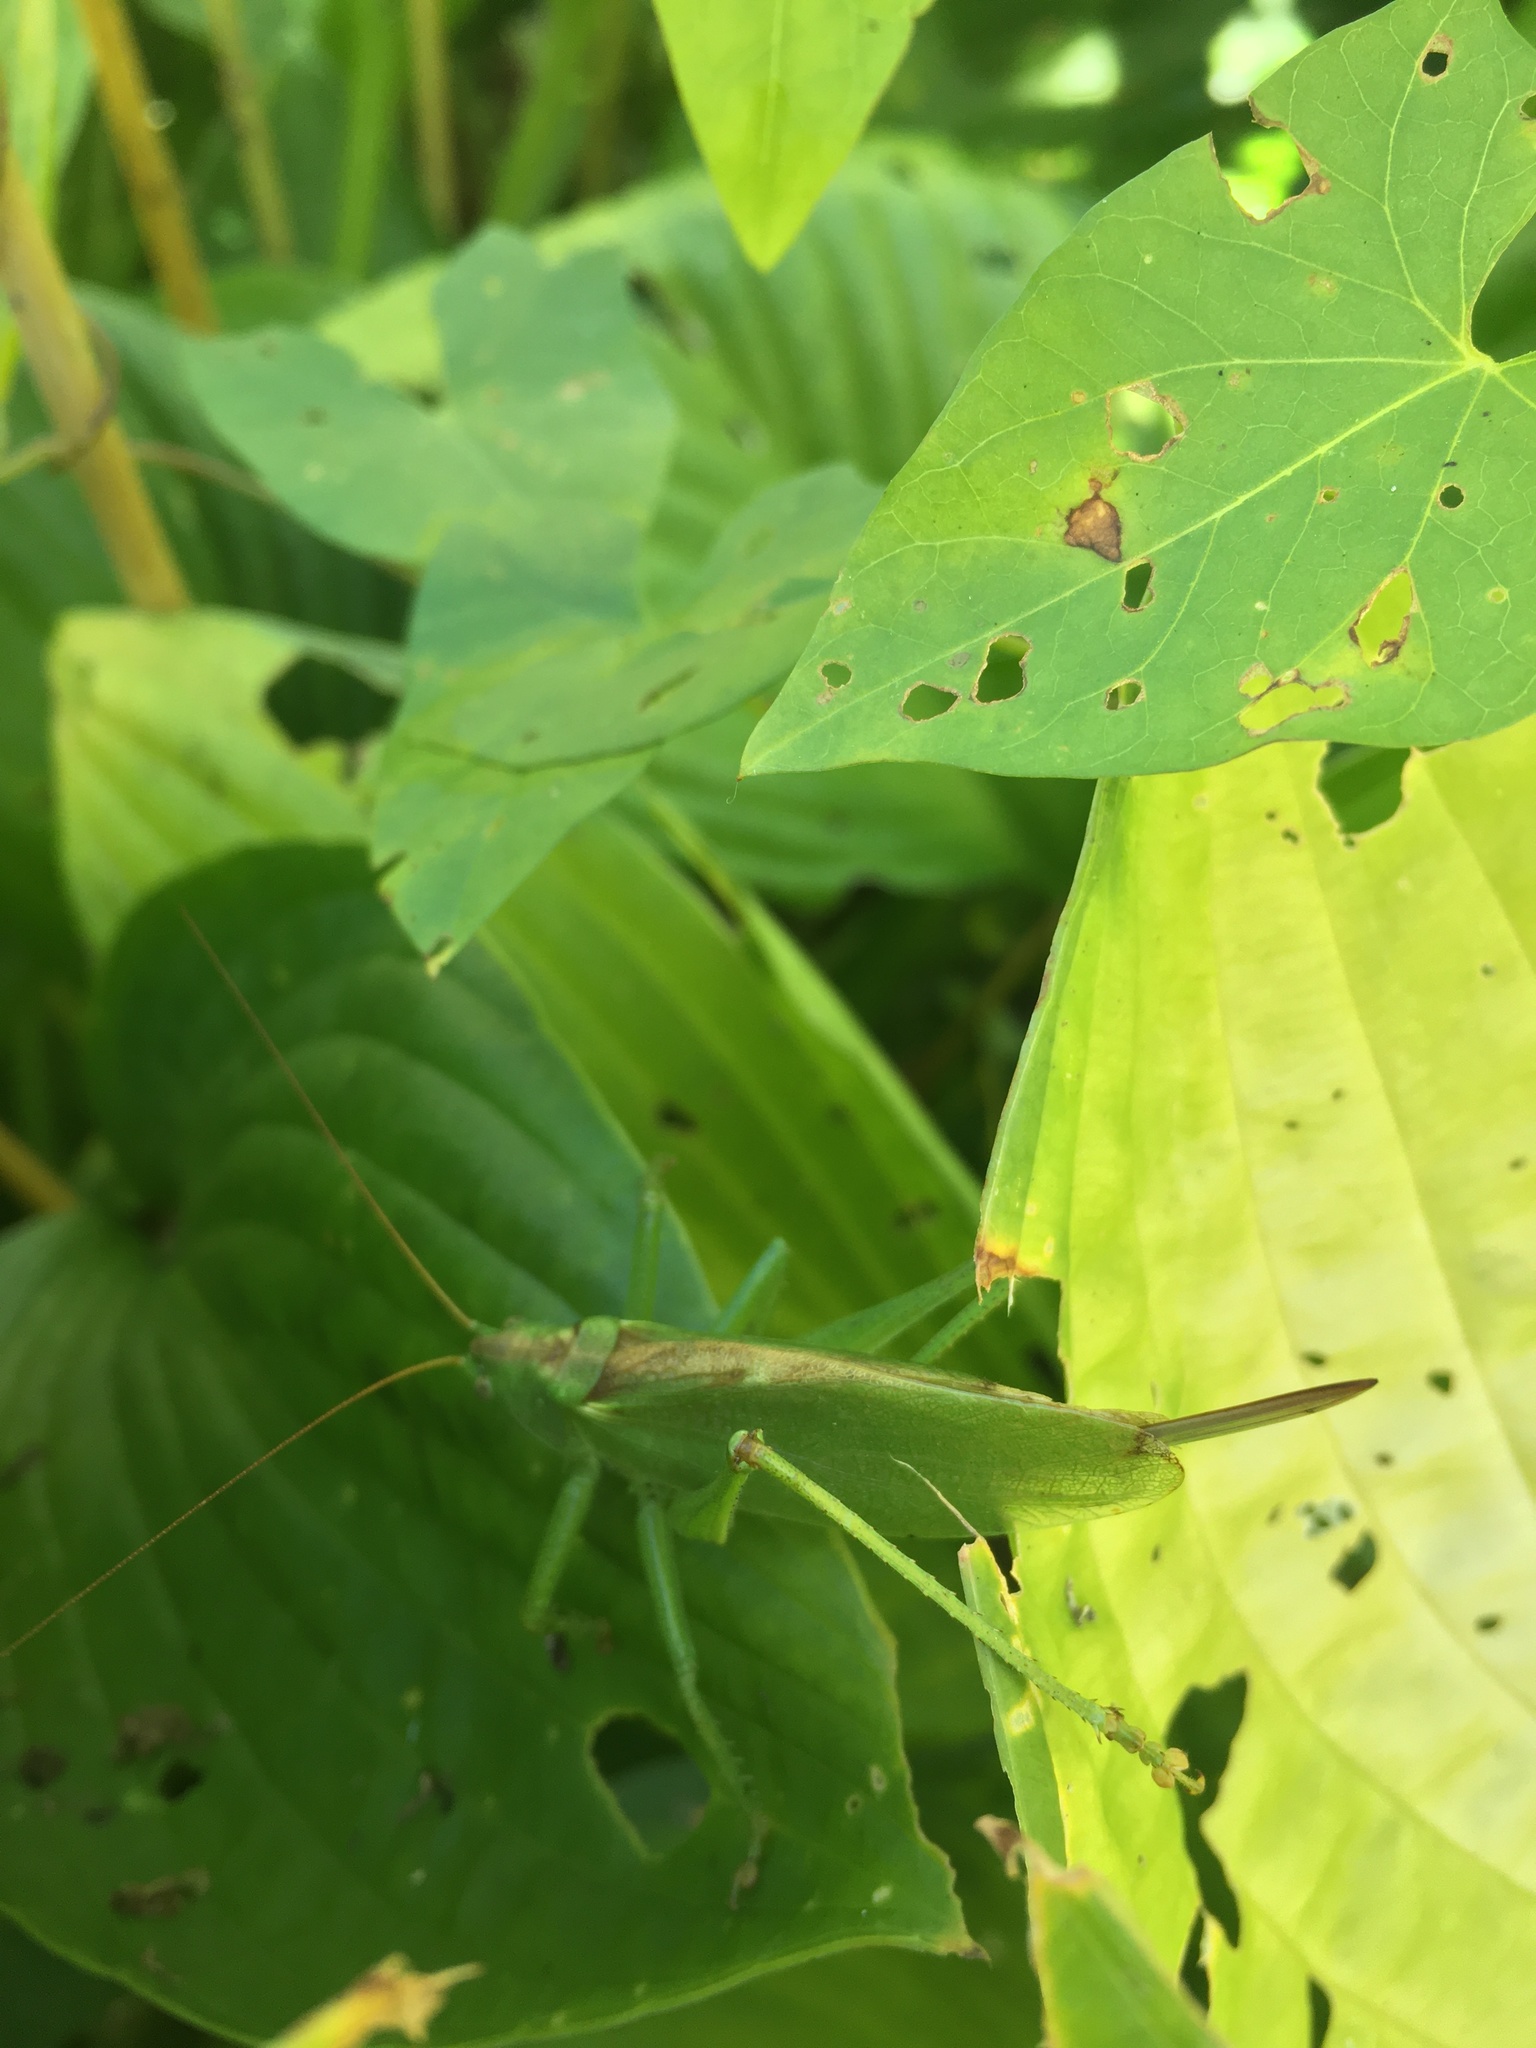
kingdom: Animalia
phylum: Arthropoda
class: Insecta
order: Orthoptera
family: Tettigoniidae
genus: Tettigonia
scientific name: Tettigonia cantans
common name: Upland green bush-cricket
